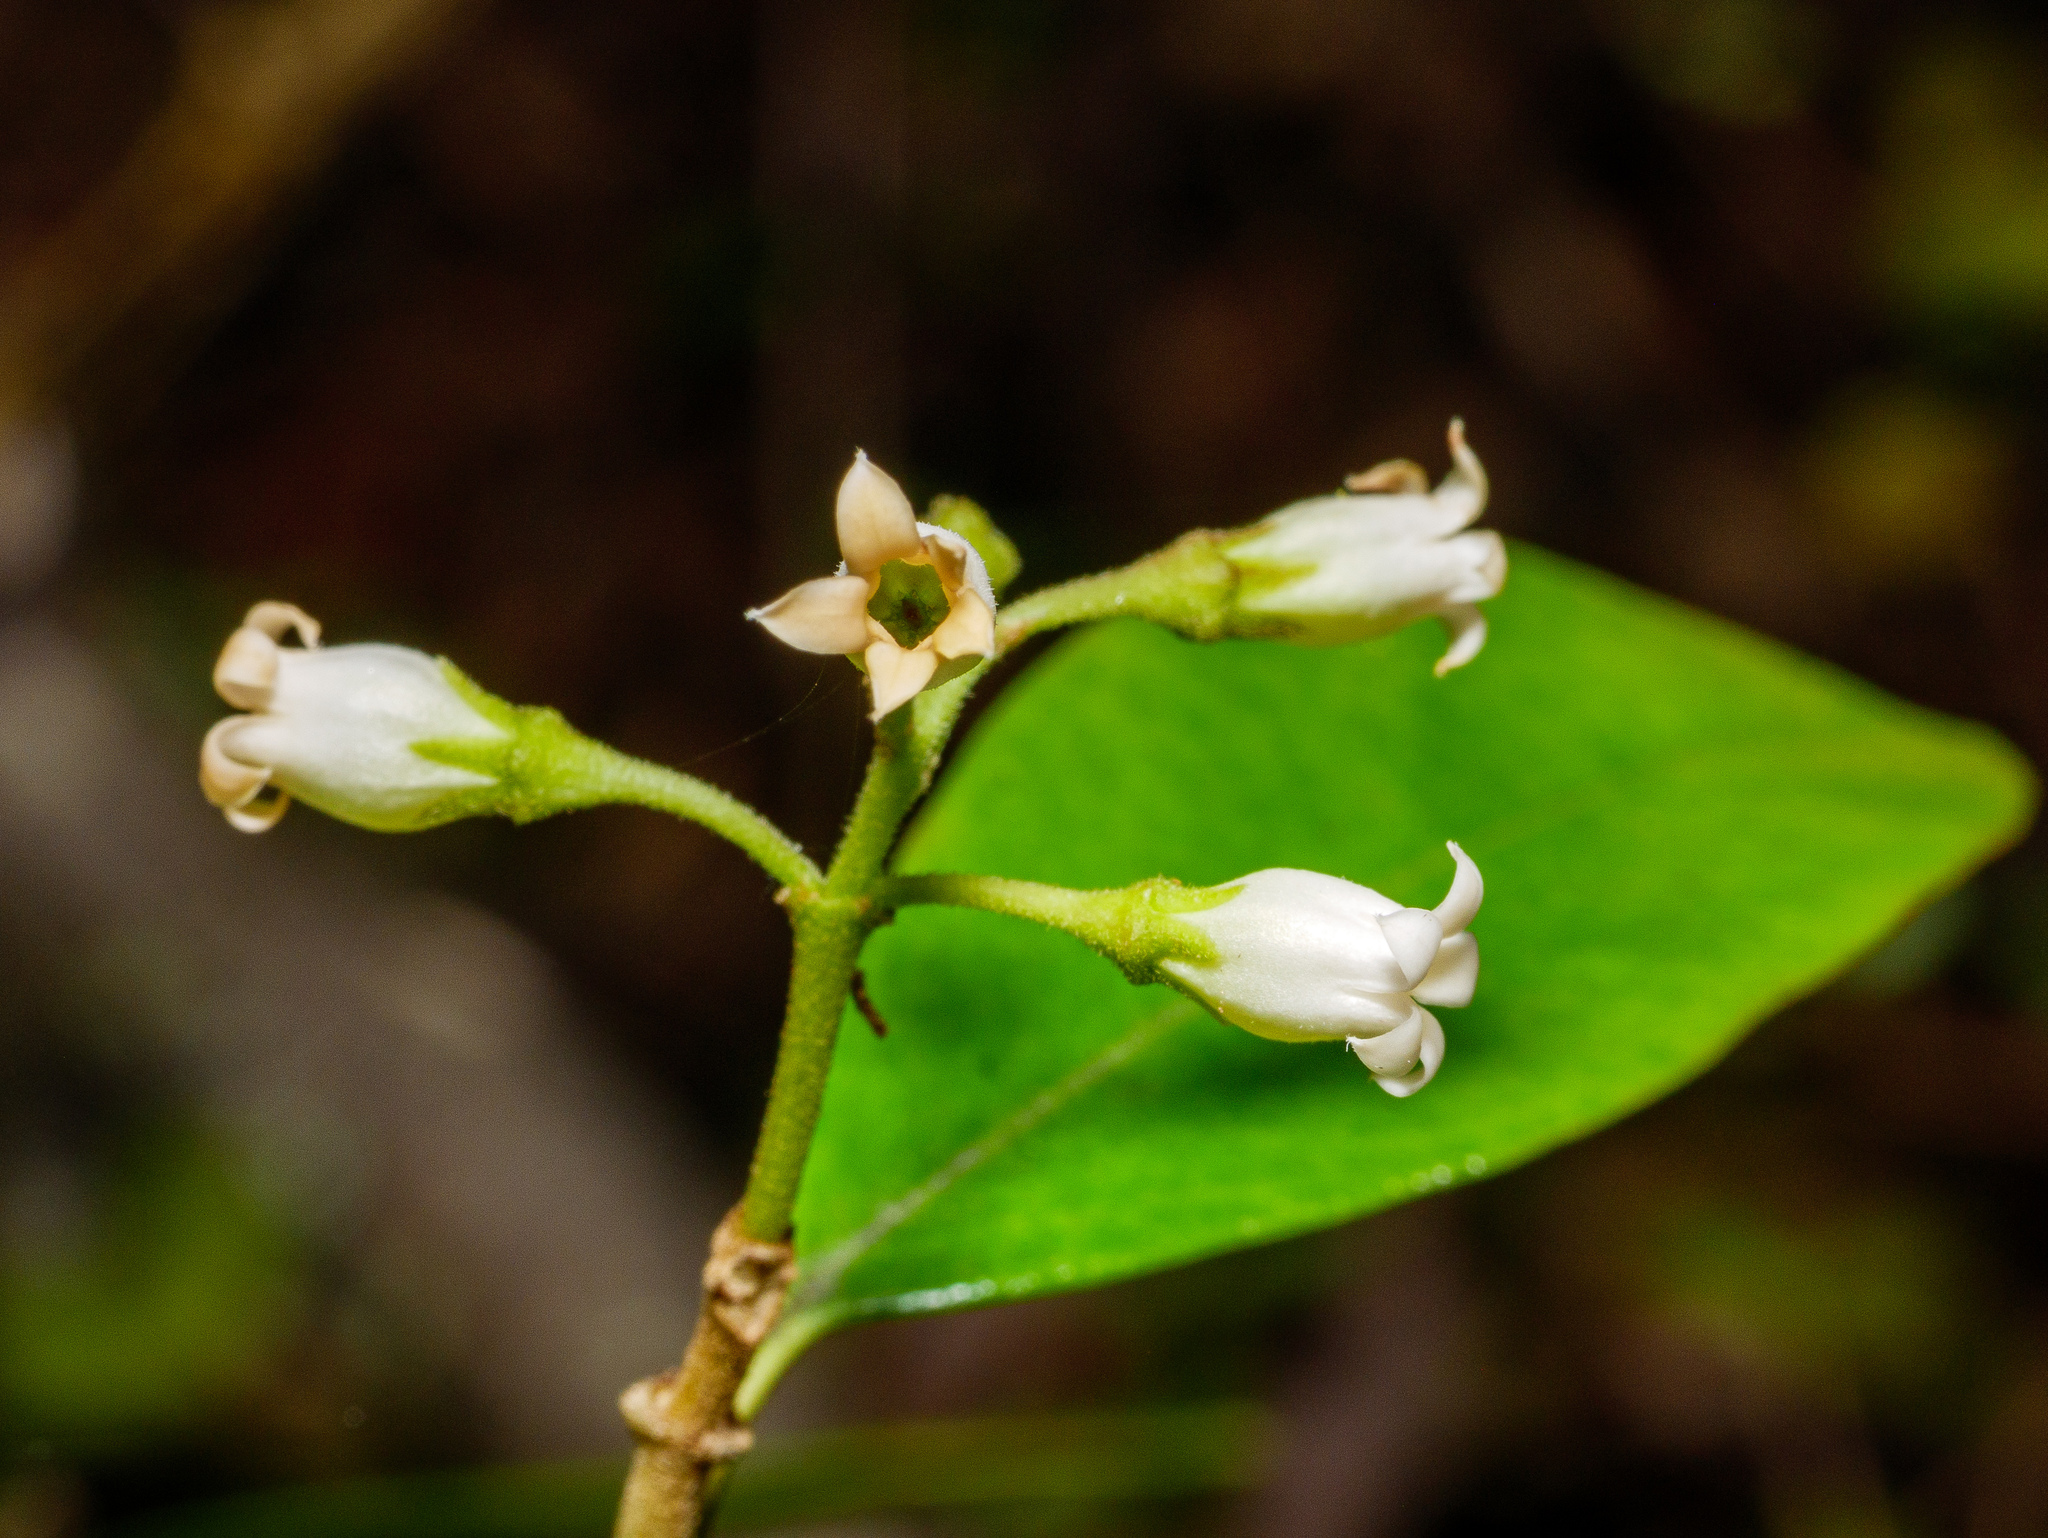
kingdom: Plantae
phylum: Tracheophyta
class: Magnoliopsida
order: Gentianales
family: Apocynaceae
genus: Parsonsia
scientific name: Parsonsia heterophylla
